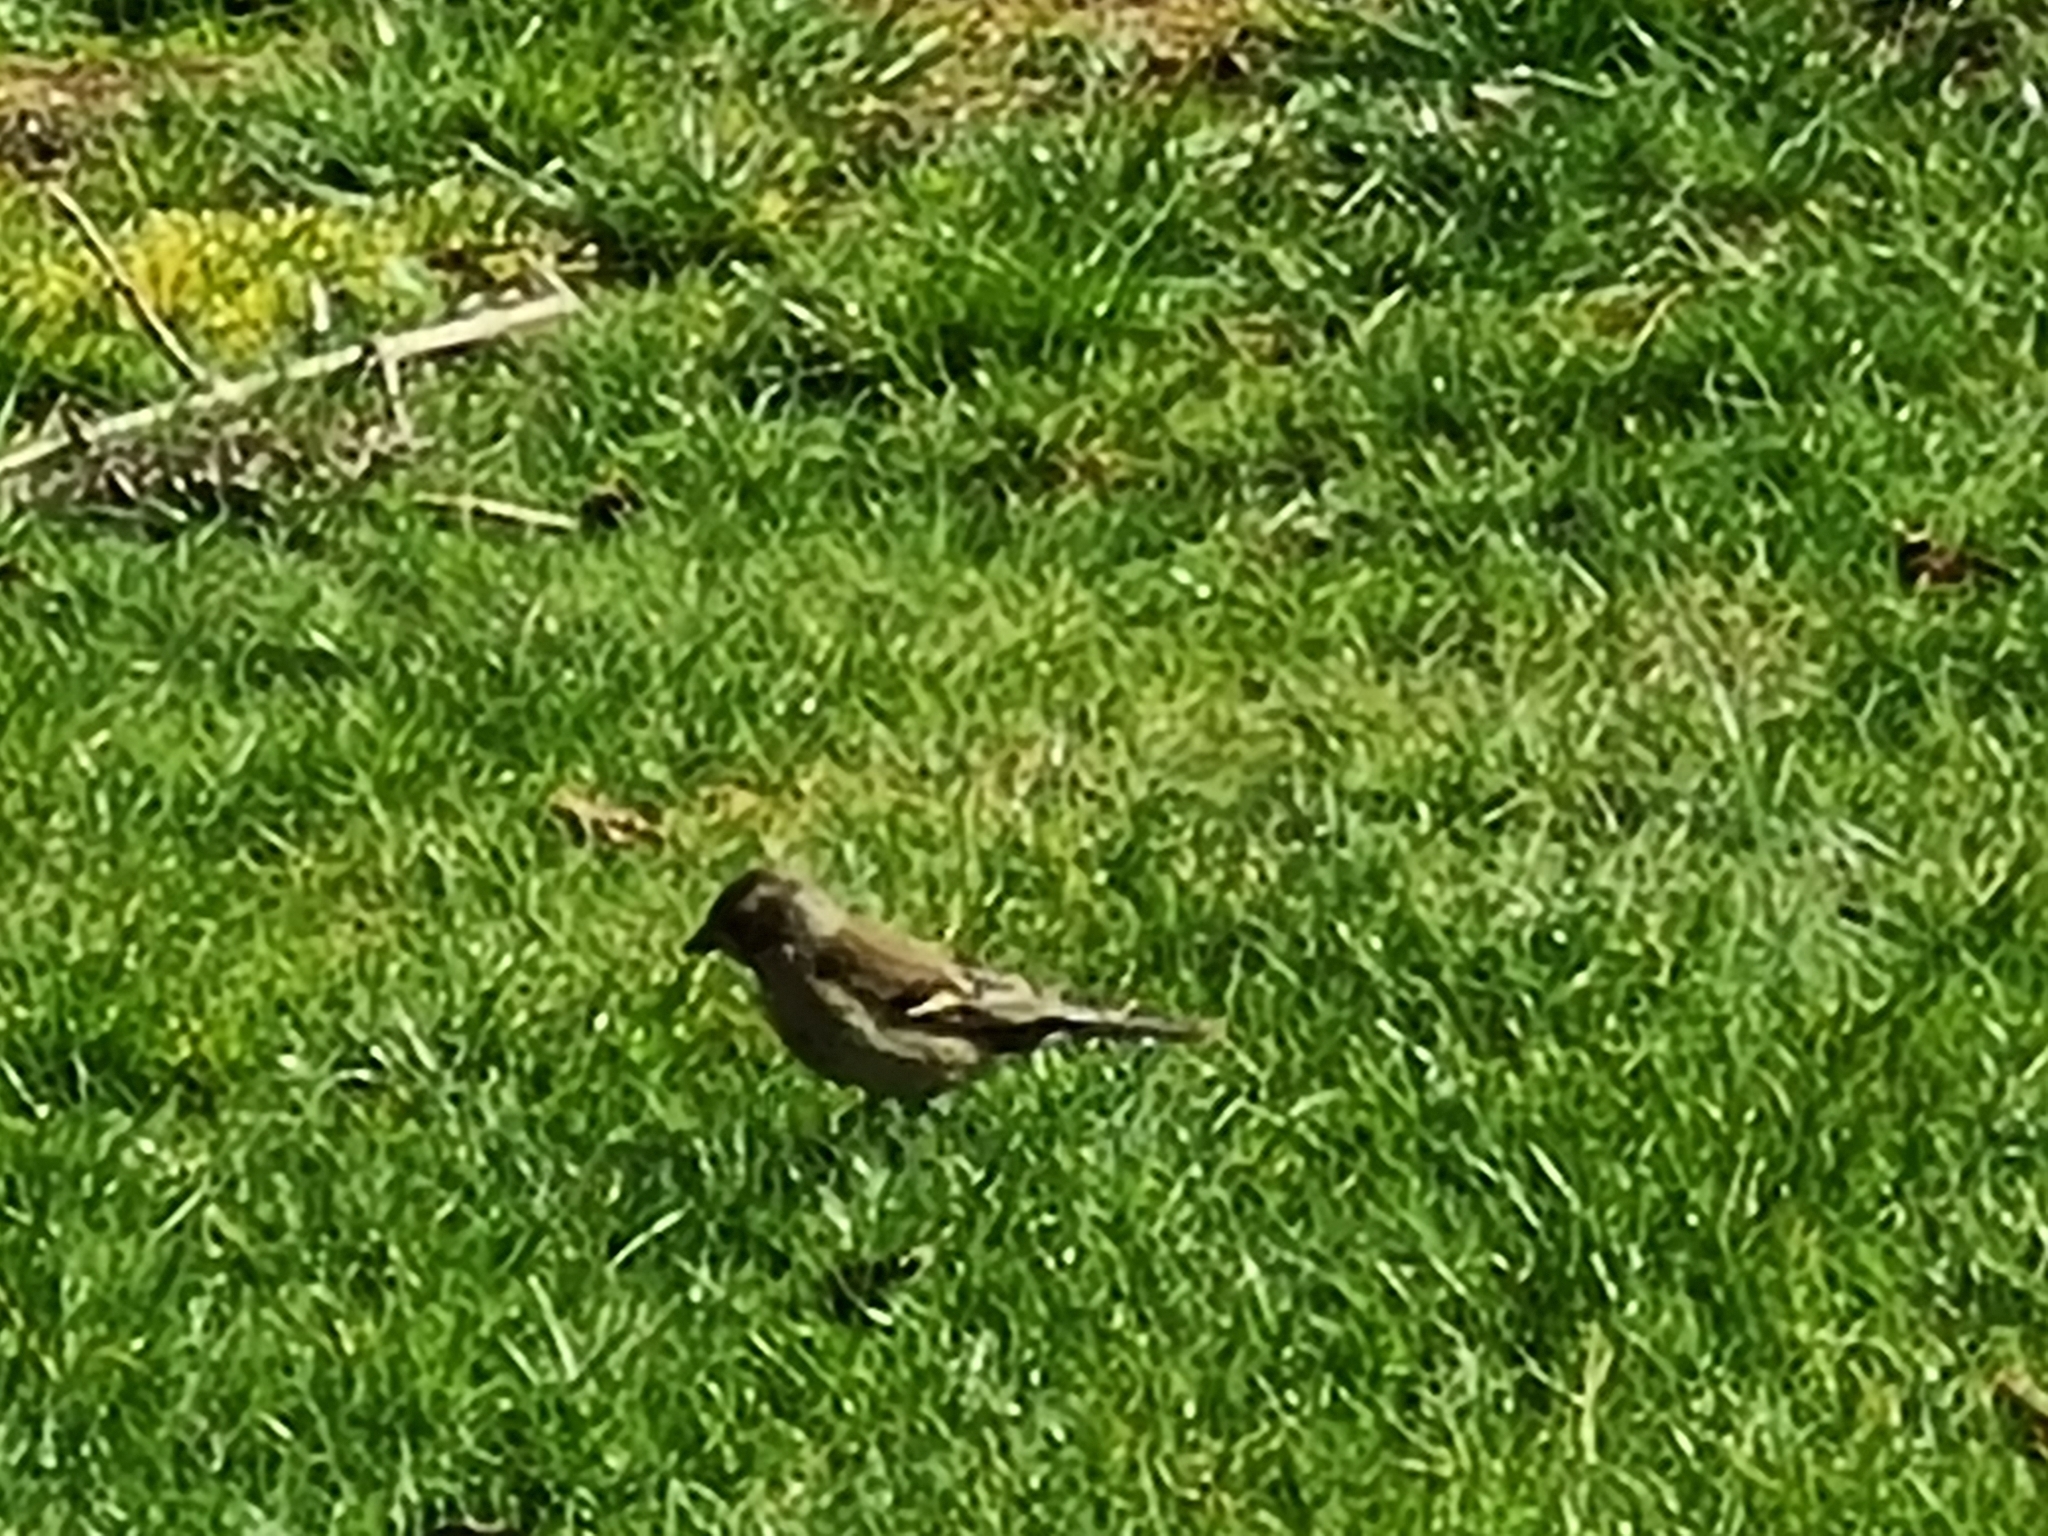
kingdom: Animalia
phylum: Chordata
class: Aves
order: Passeriformes
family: Fringillidae
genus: Fringilla
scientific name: Fringilla coelebs
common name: Common chaffinch
